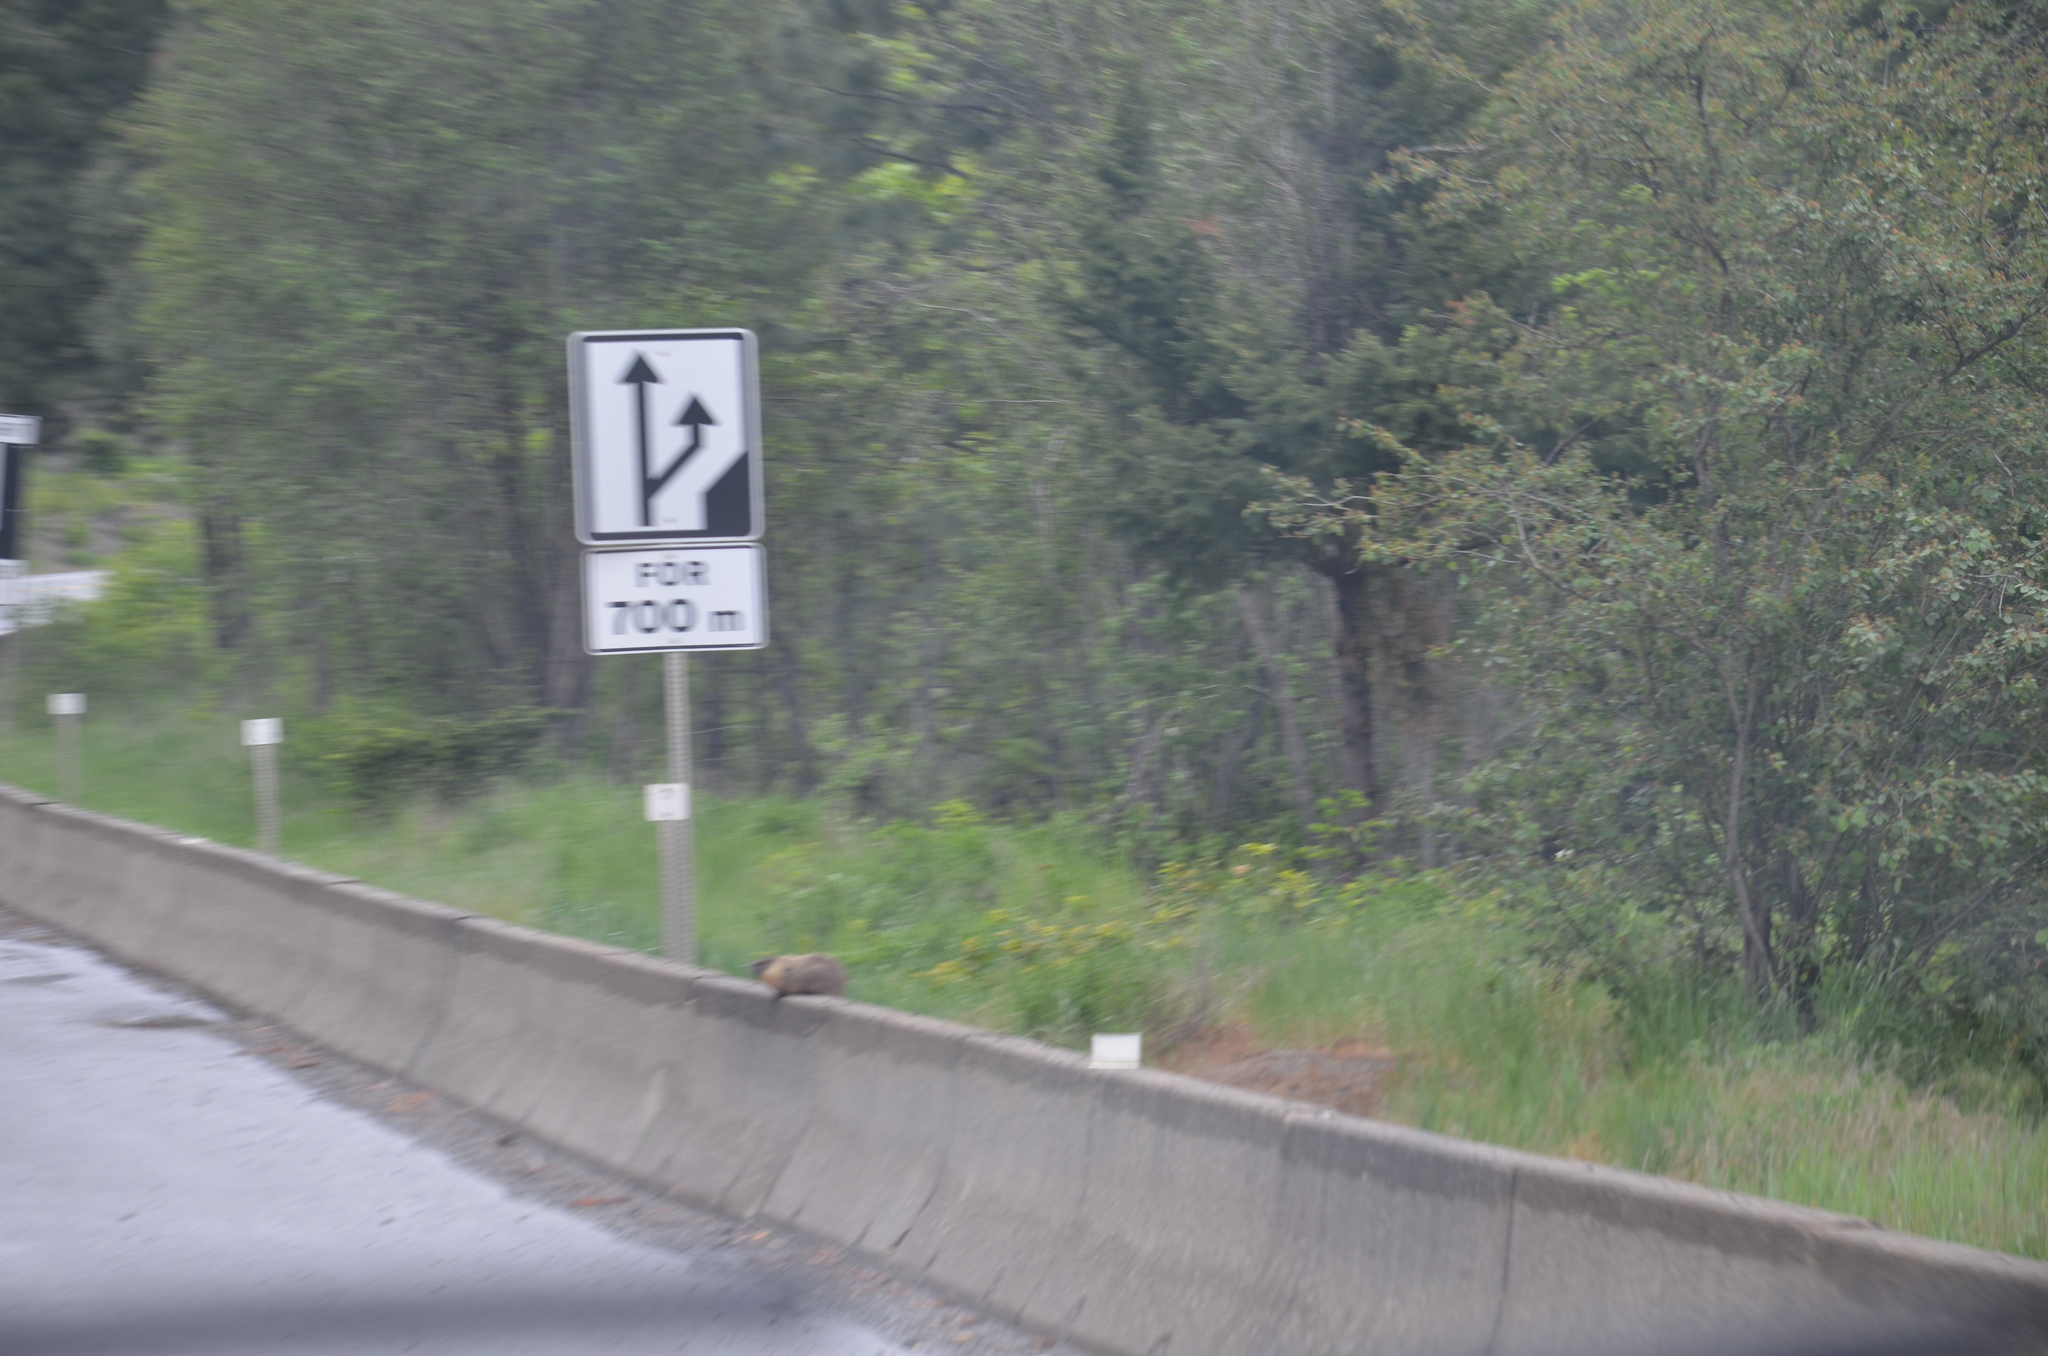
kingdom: Animalia
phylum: Chordata
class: Mammalia
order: Rodentia
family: Sciuridae
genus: Marmota
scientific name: Marmota flaviventris
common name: Yellow-bellied marmot
